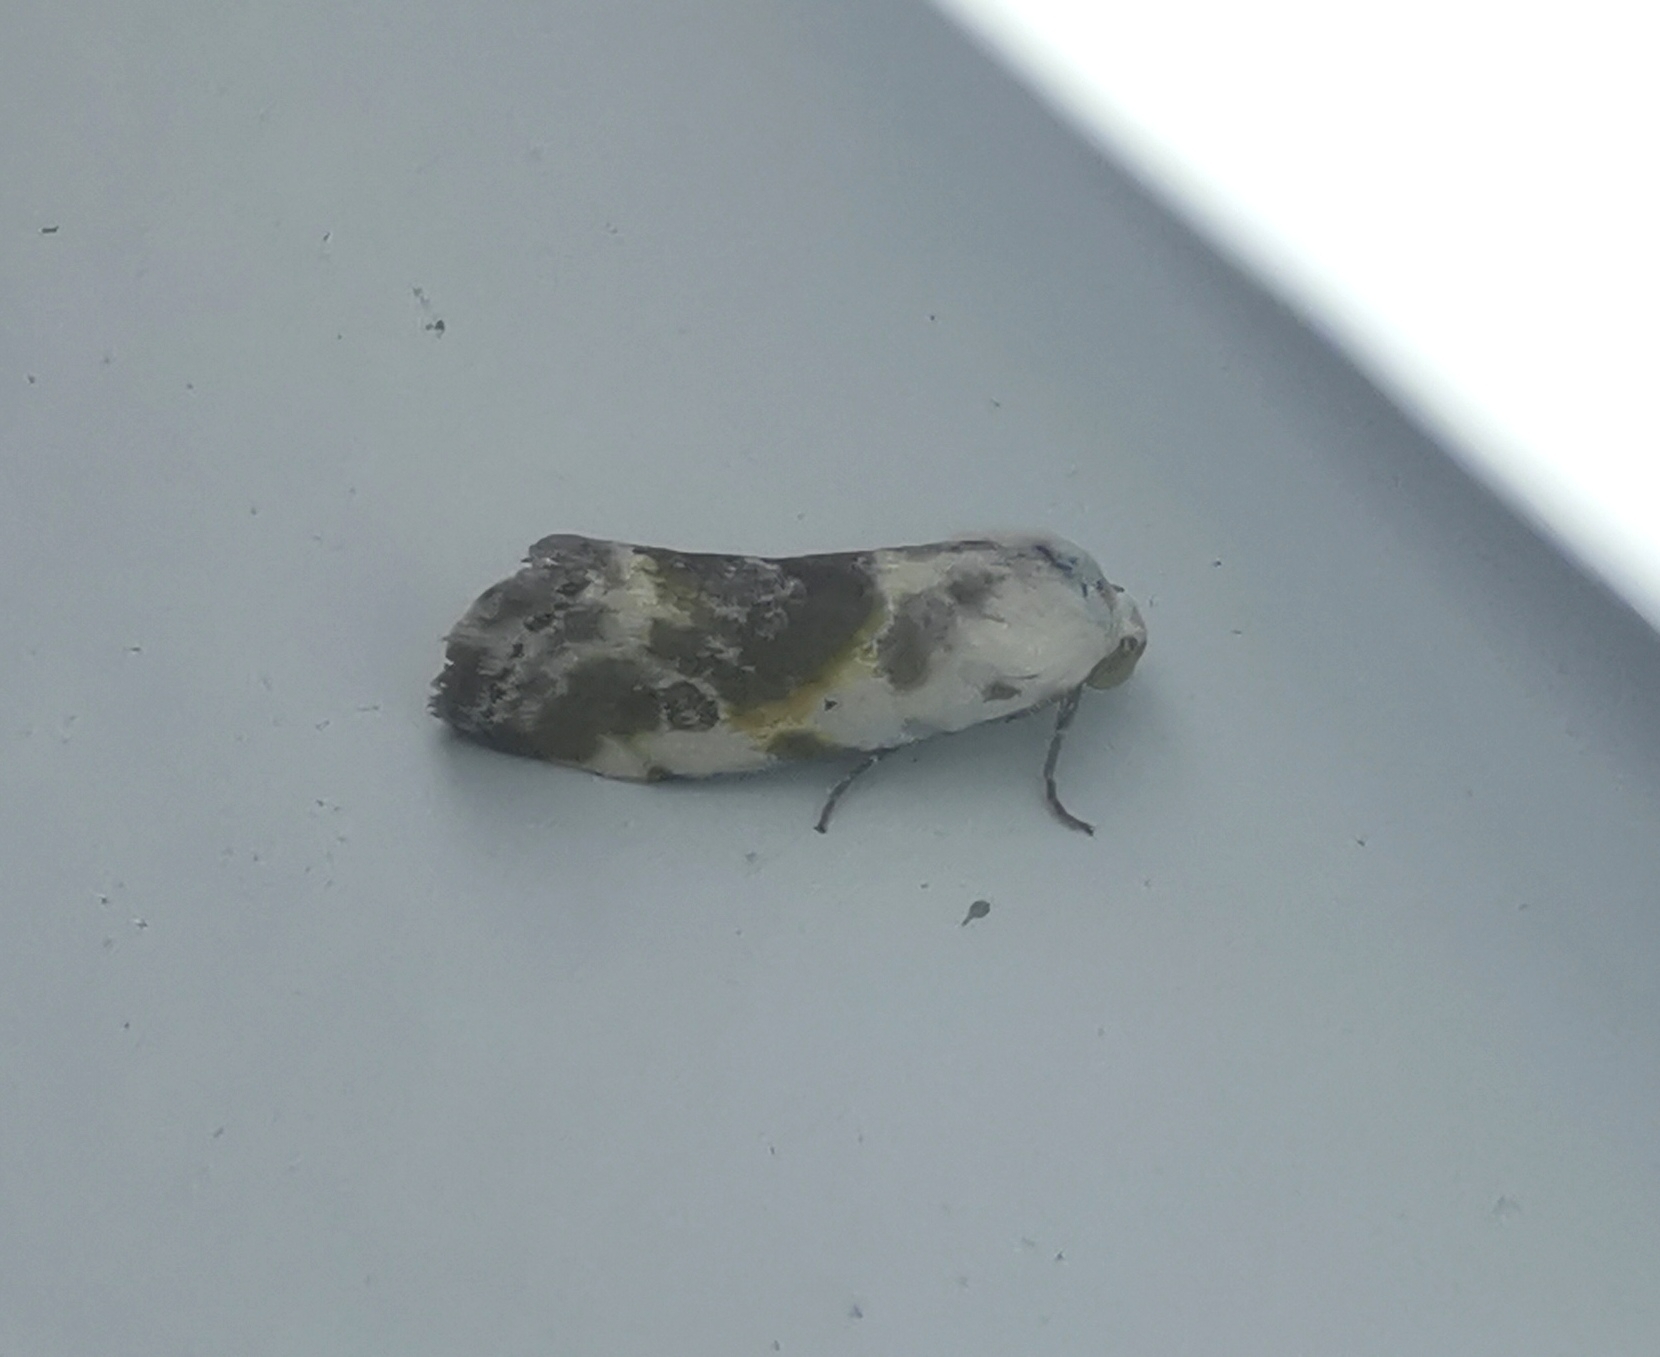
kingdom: Animalia
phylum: Arthropoda
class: Insecta
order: Lepidoptera
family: Noctuidae
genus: Acontia
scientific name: Acontia candefacta
